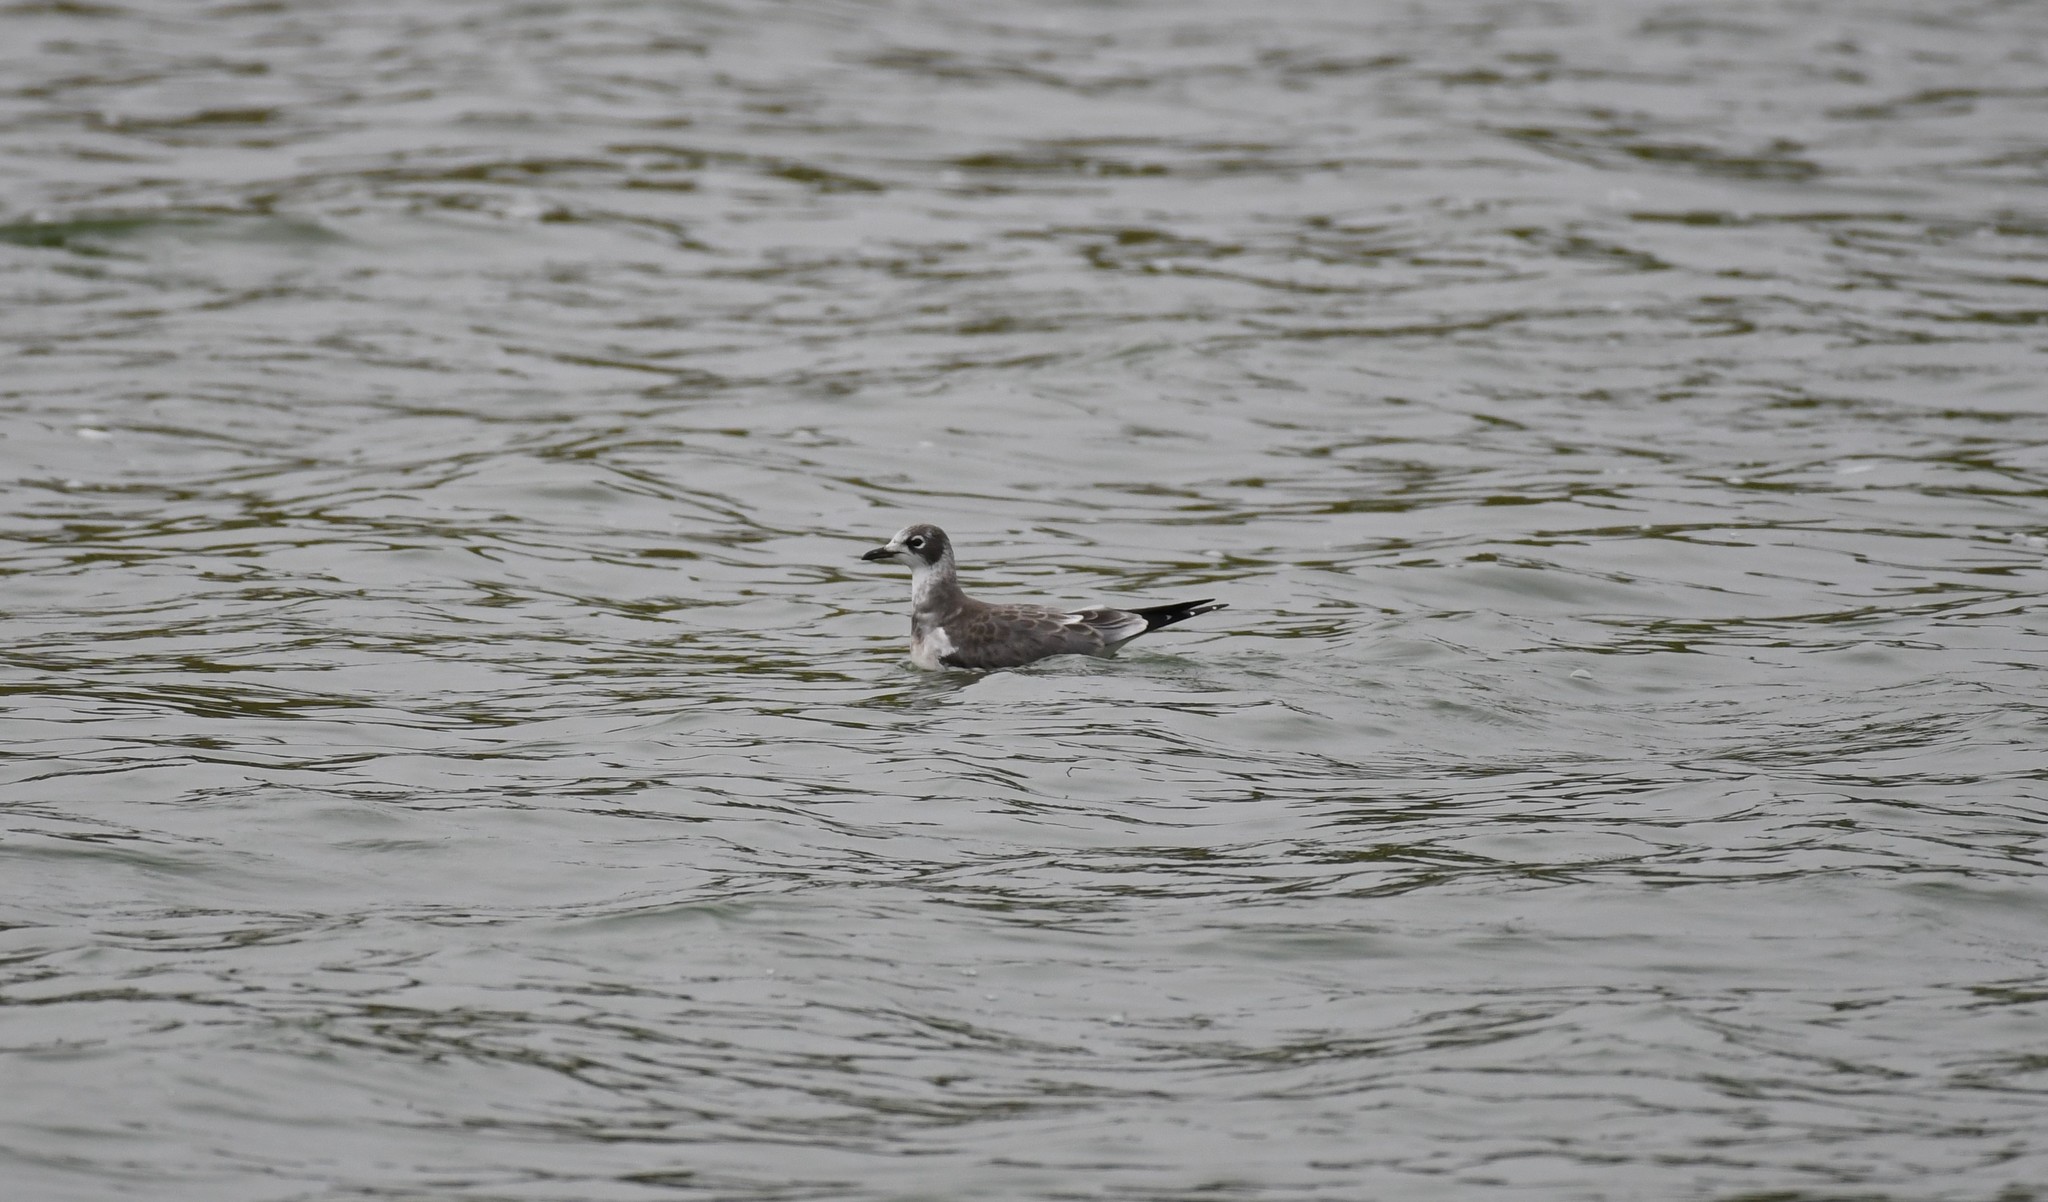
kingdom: Animalia
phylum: Chordata
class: Aves
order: Charadriiformes
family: Laridae
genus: Leucophaeus
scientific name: Leucophaeus pipixcan
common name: Franklin's gull
